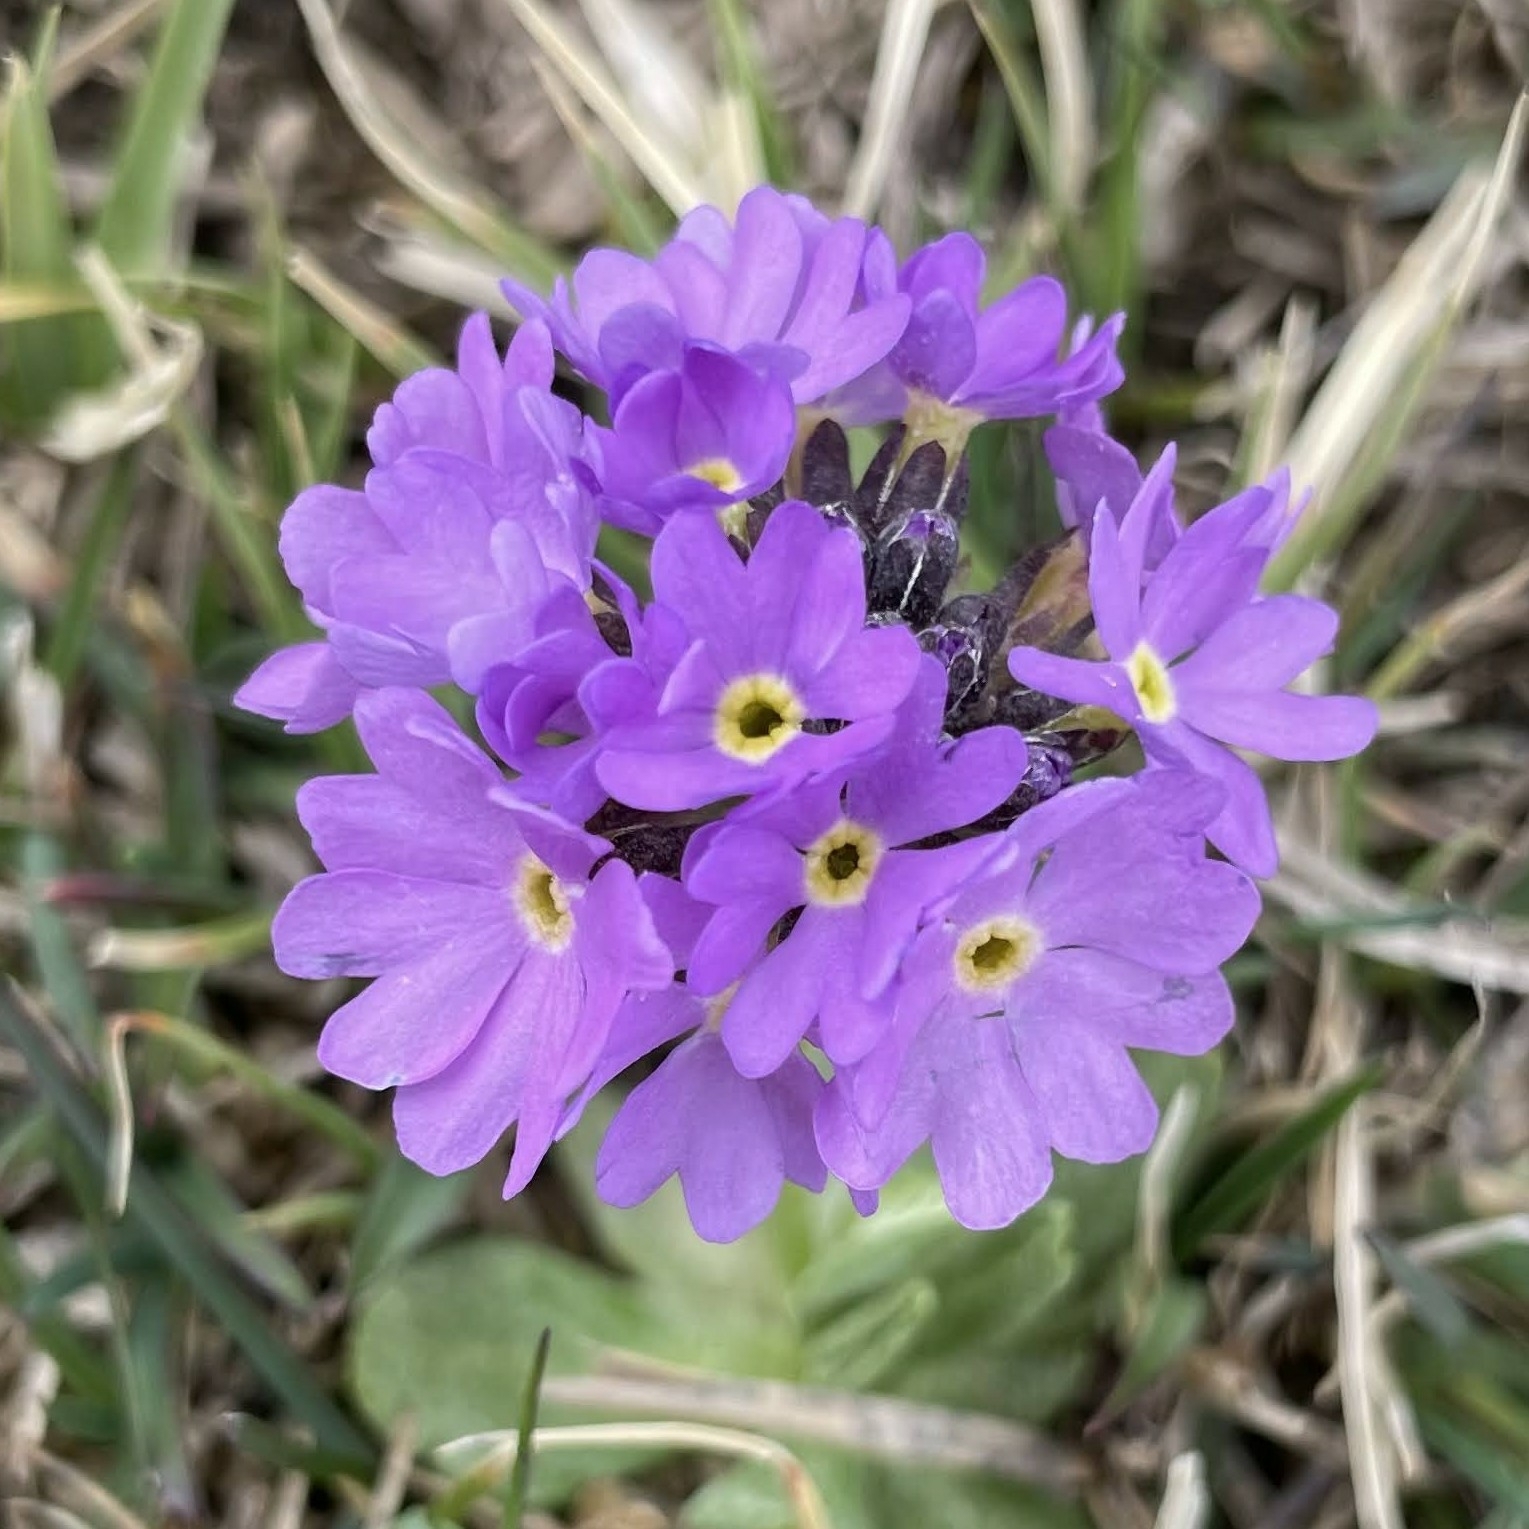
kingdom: Plantae
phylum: Tracheophyta
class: Magnoliopsida
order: Ericales
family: Primulaceae
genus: Primula
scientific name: Primula algida
